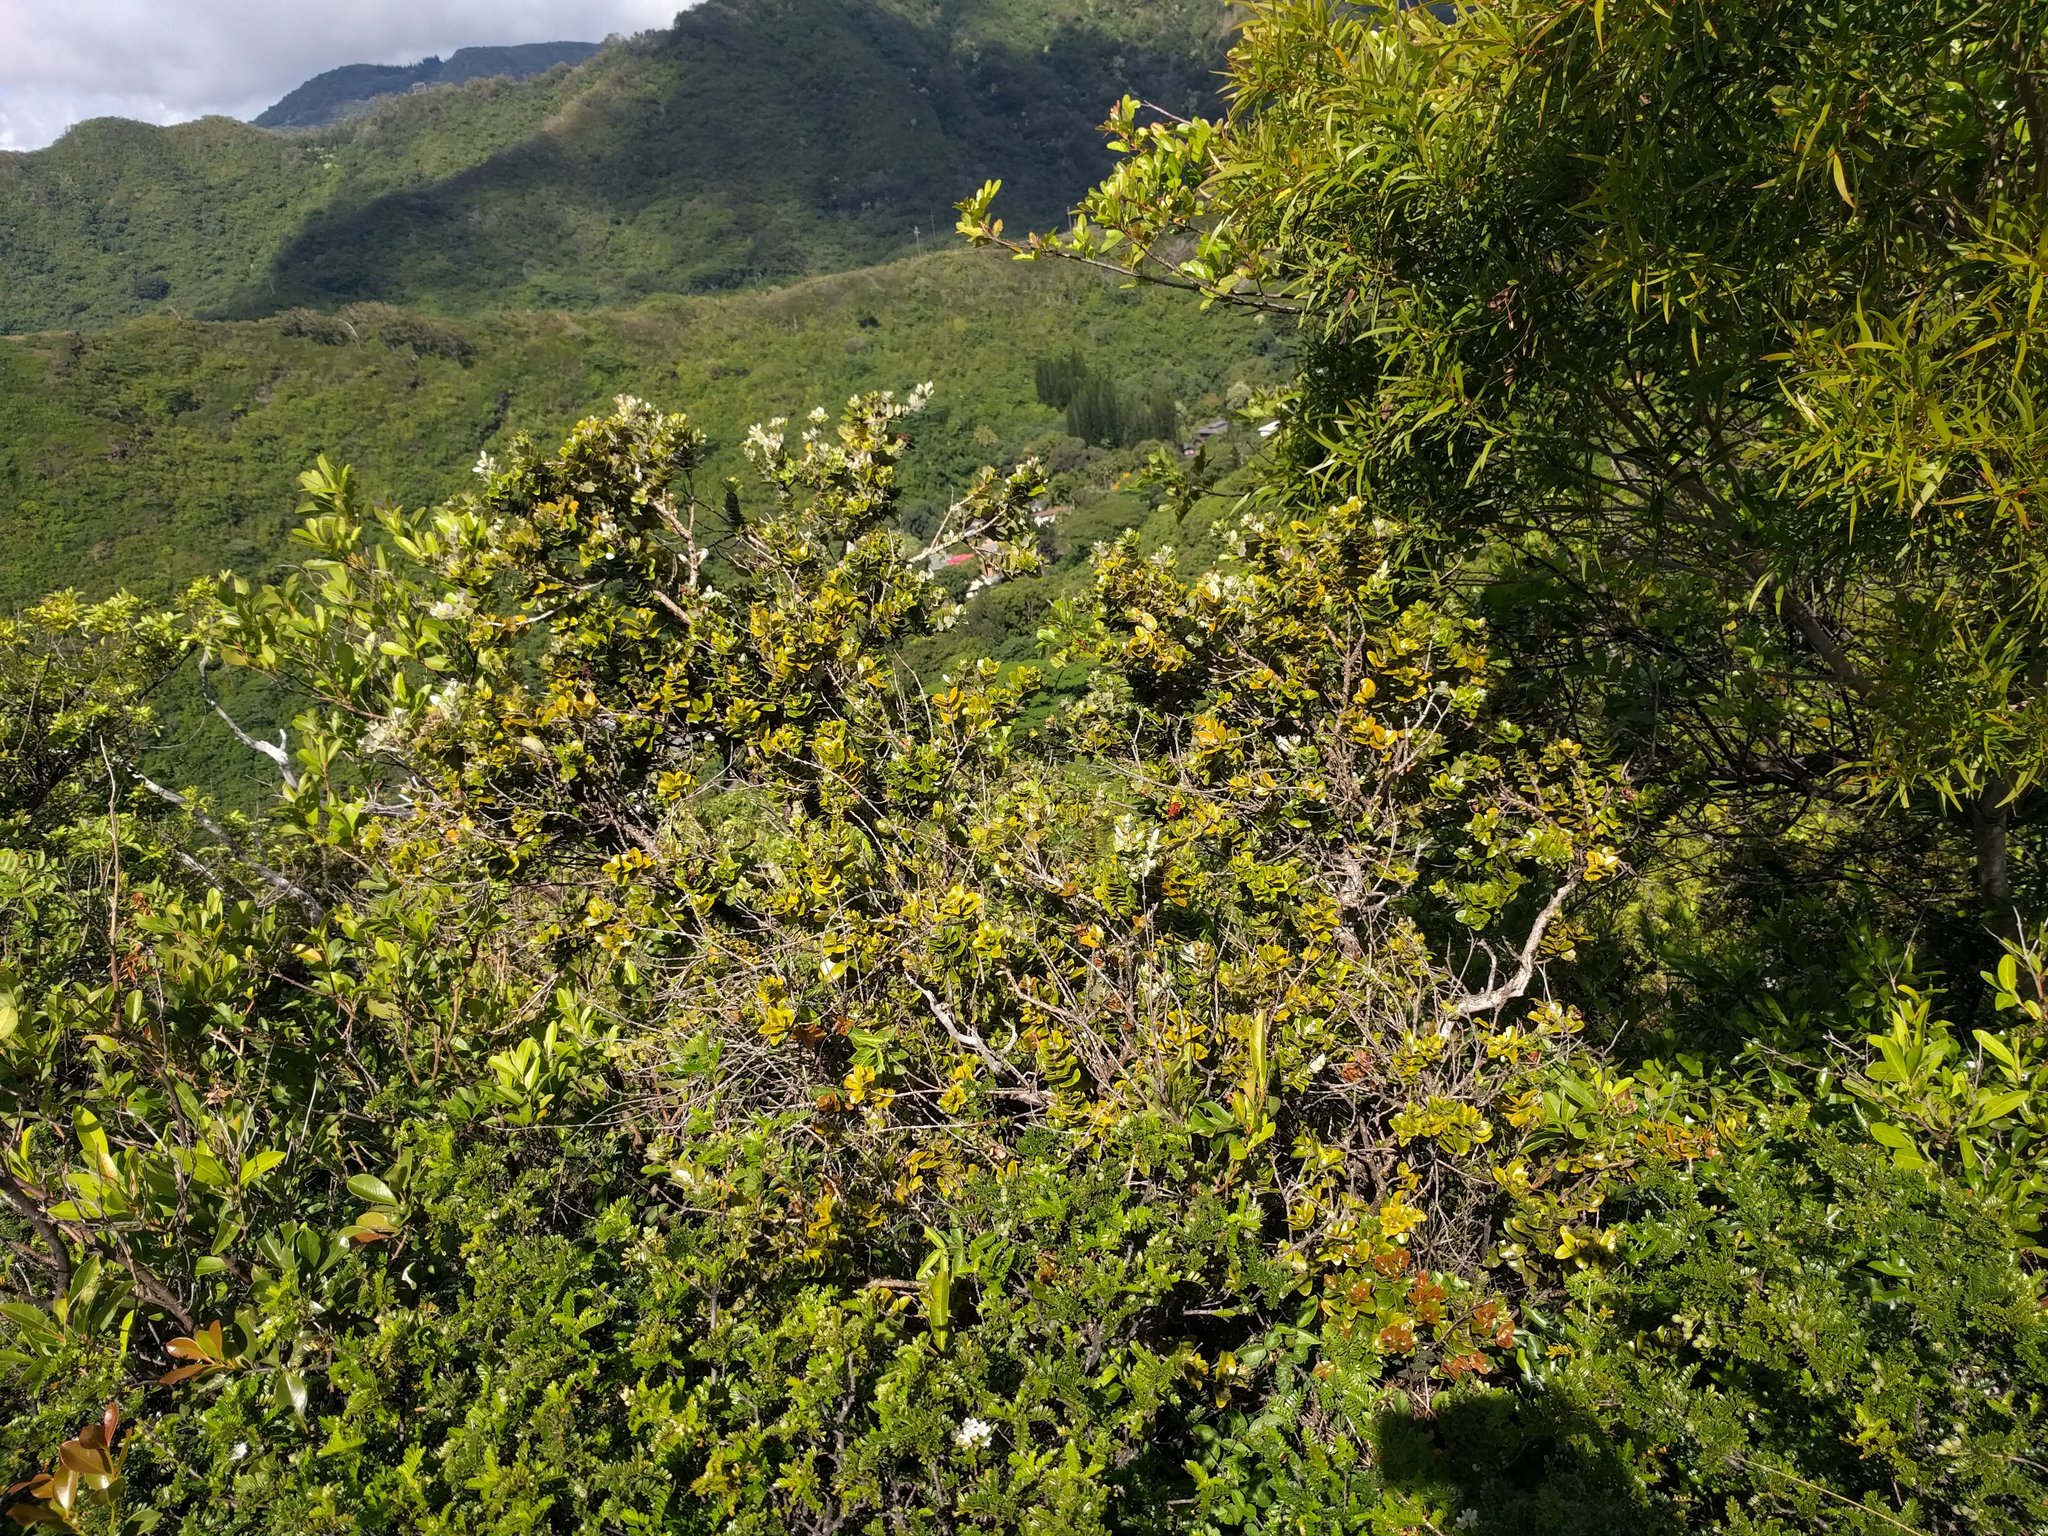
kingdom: Plantae
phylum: Tracheophyta
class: Magnoliopsida
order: Myrtales
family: Myrtaceae
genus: Metrosideros
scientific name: Metrosideros polymorpha
